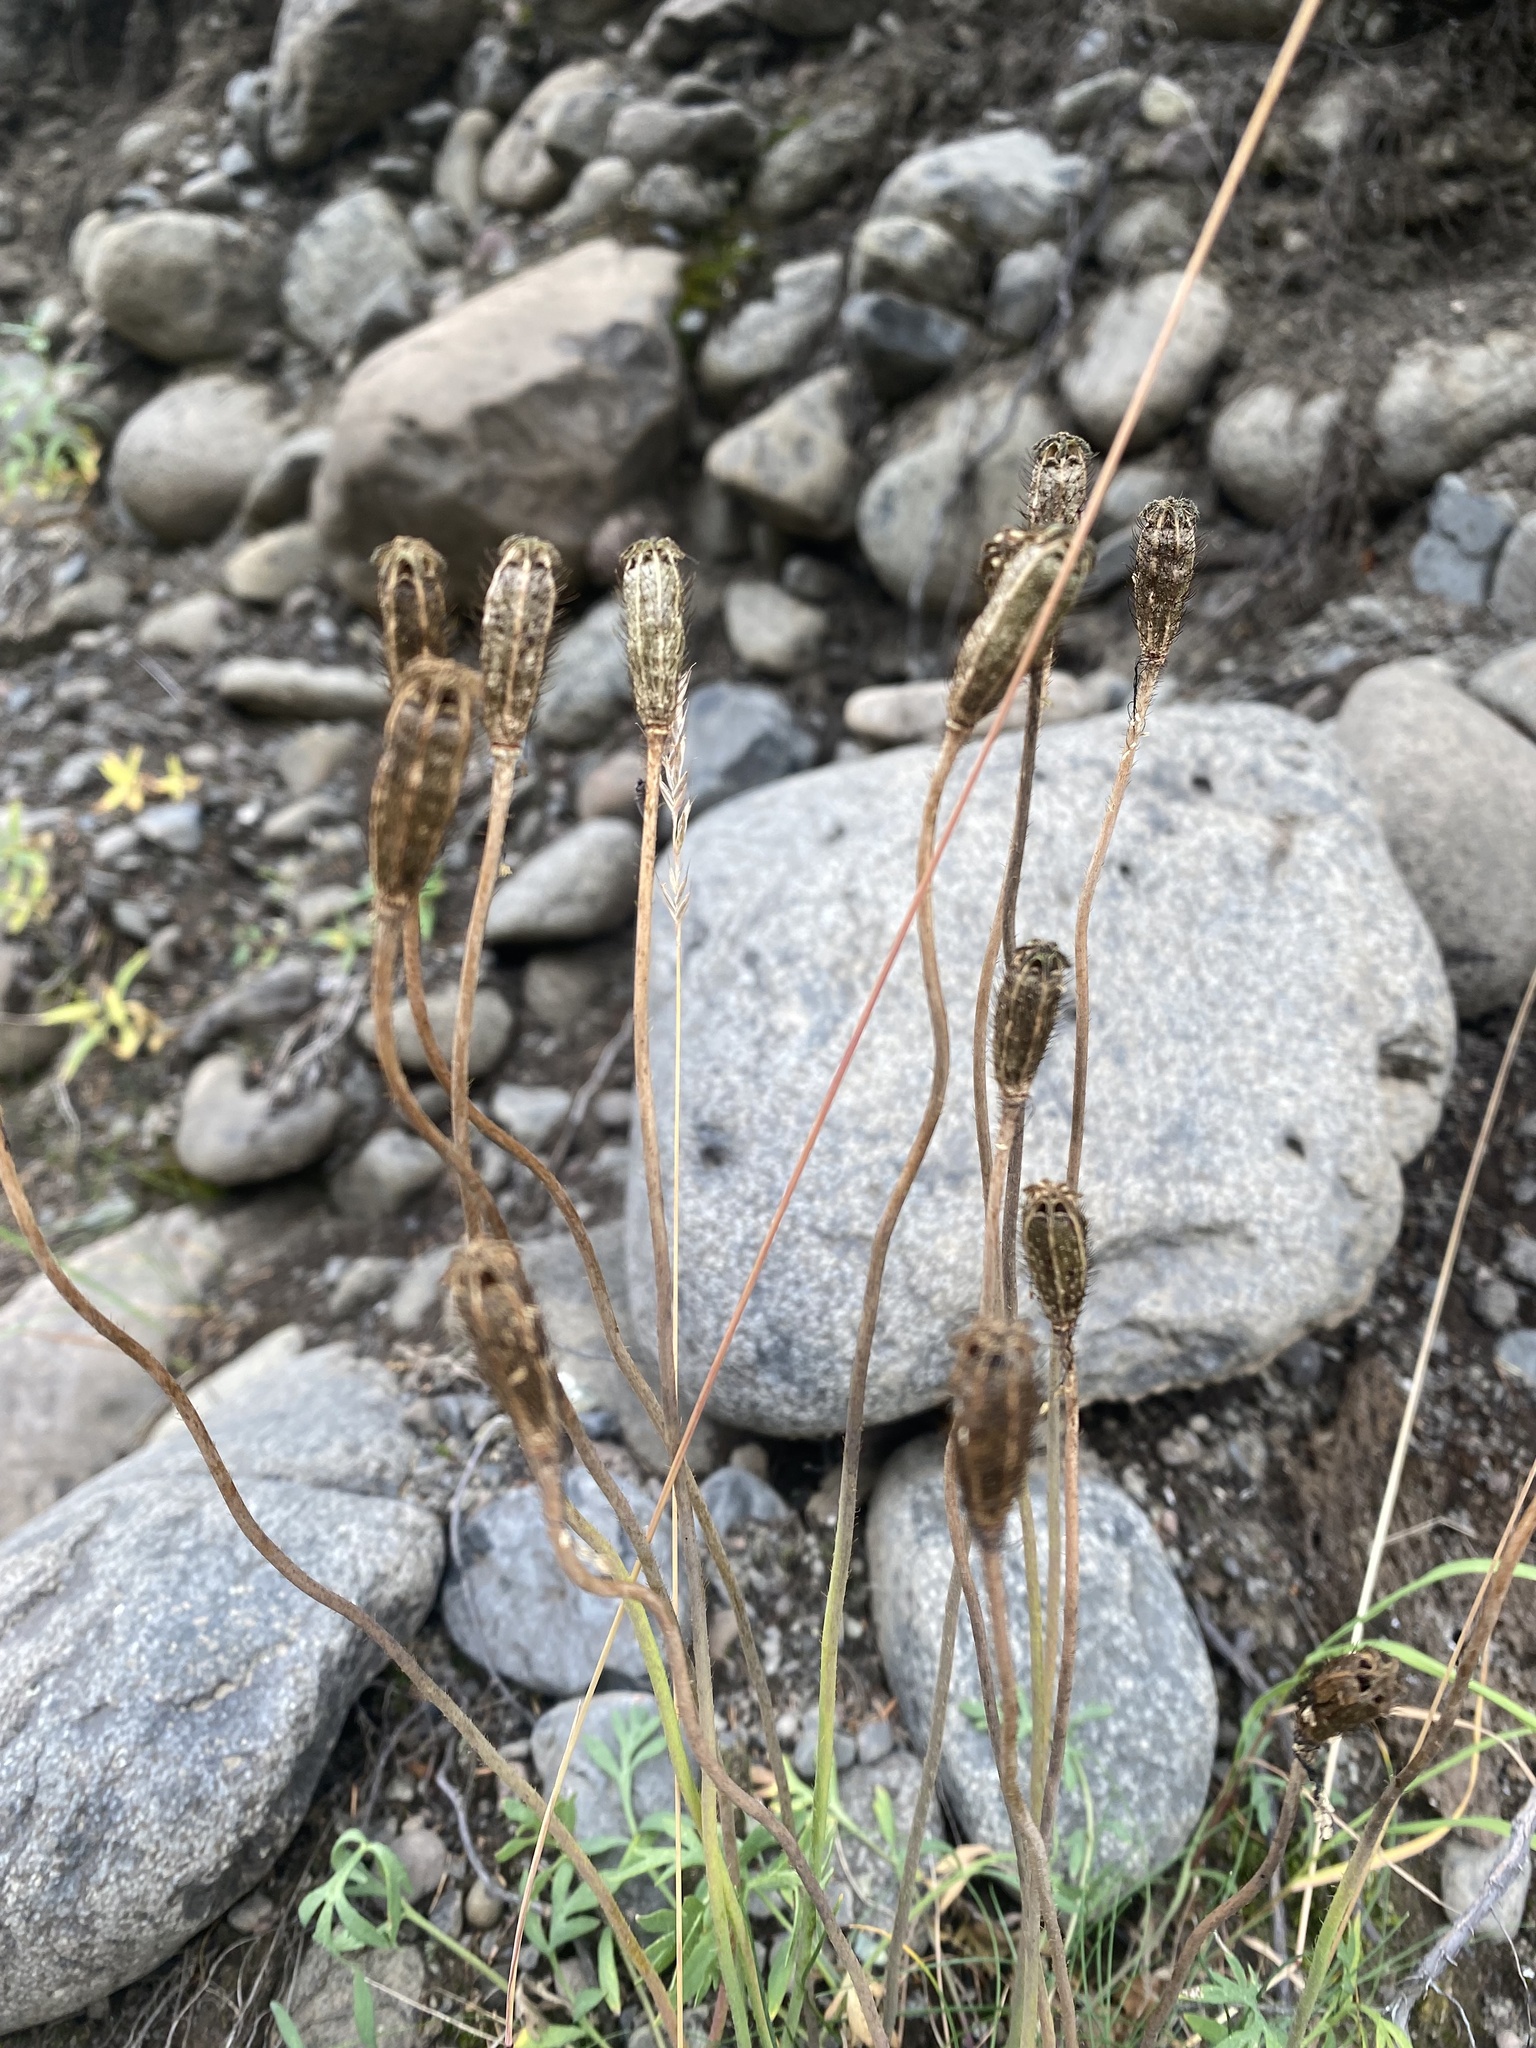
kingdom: Plantae
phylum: Tracheophyta
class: Magnoliopsida
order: Ranunculales
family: Papaveraceae
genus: Papaver
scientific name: Papaver angustifolium
